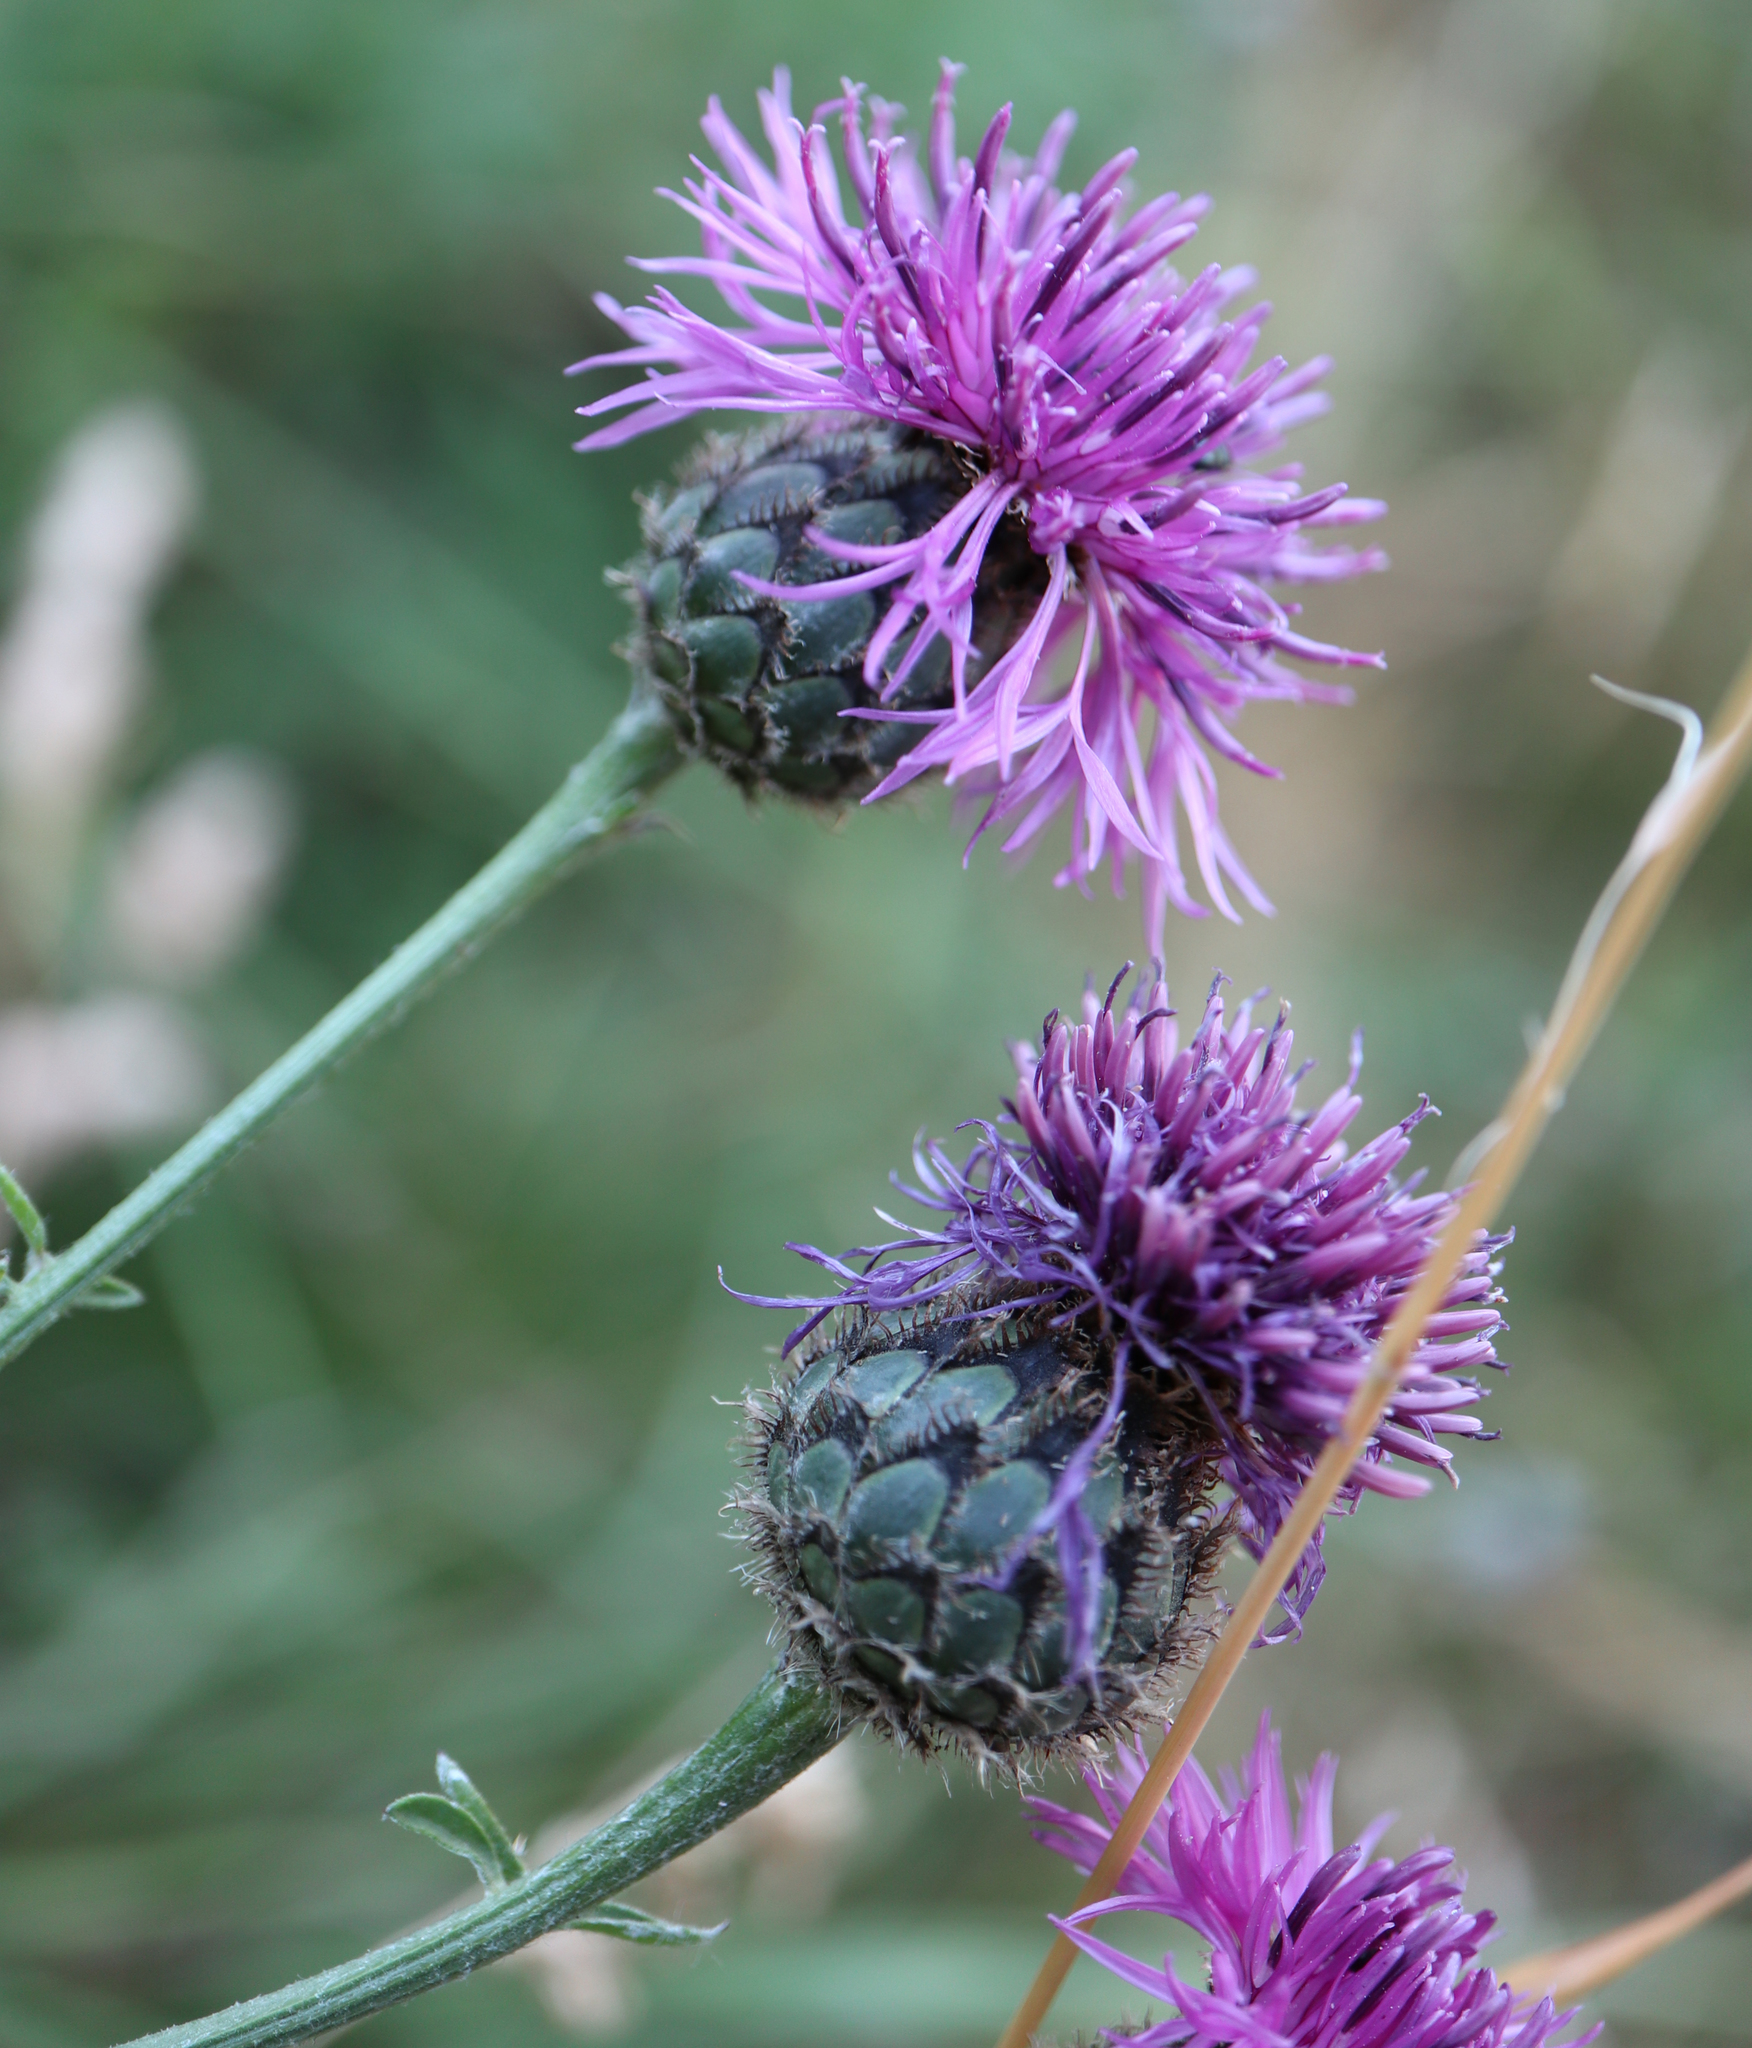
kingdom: Plantae
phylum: Tracheophyta
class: Magnoliopsida
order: Asterales
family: Asteraceae
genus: Centaurea
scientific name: Centaurea scabiosa
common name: Greater knapweed
